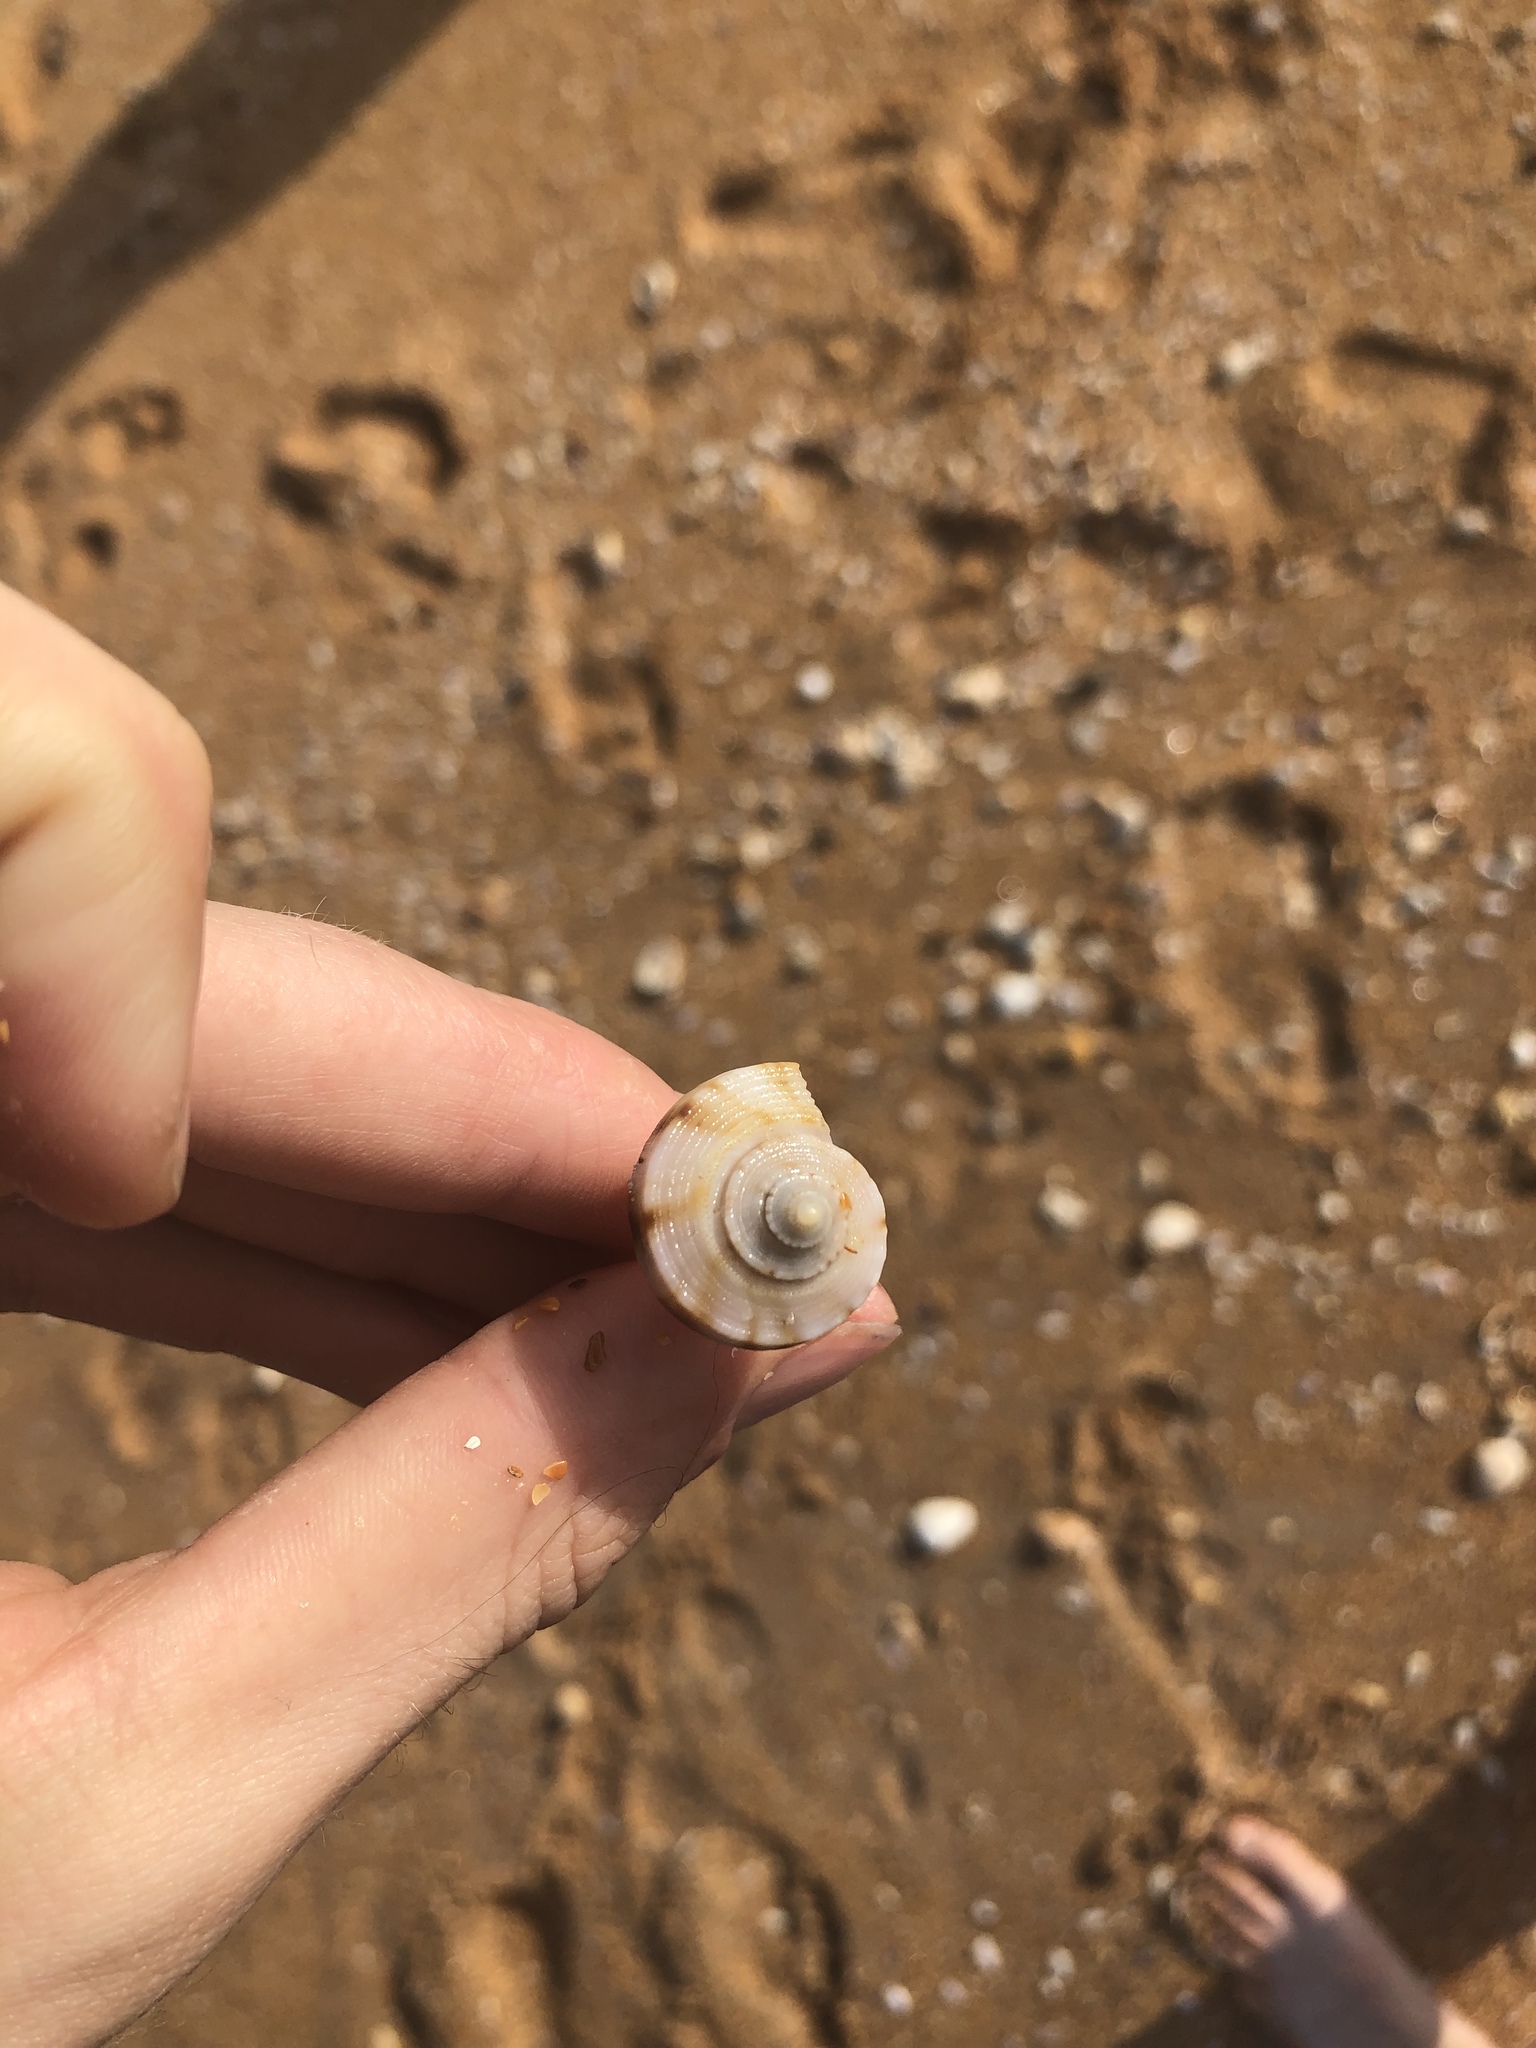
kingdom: Animalia
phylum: Mollusca
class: Gastropoda
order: Neogastropoda
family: Busyconidae
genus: Fulguropsis
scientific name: Fulguropsis pyruloides
